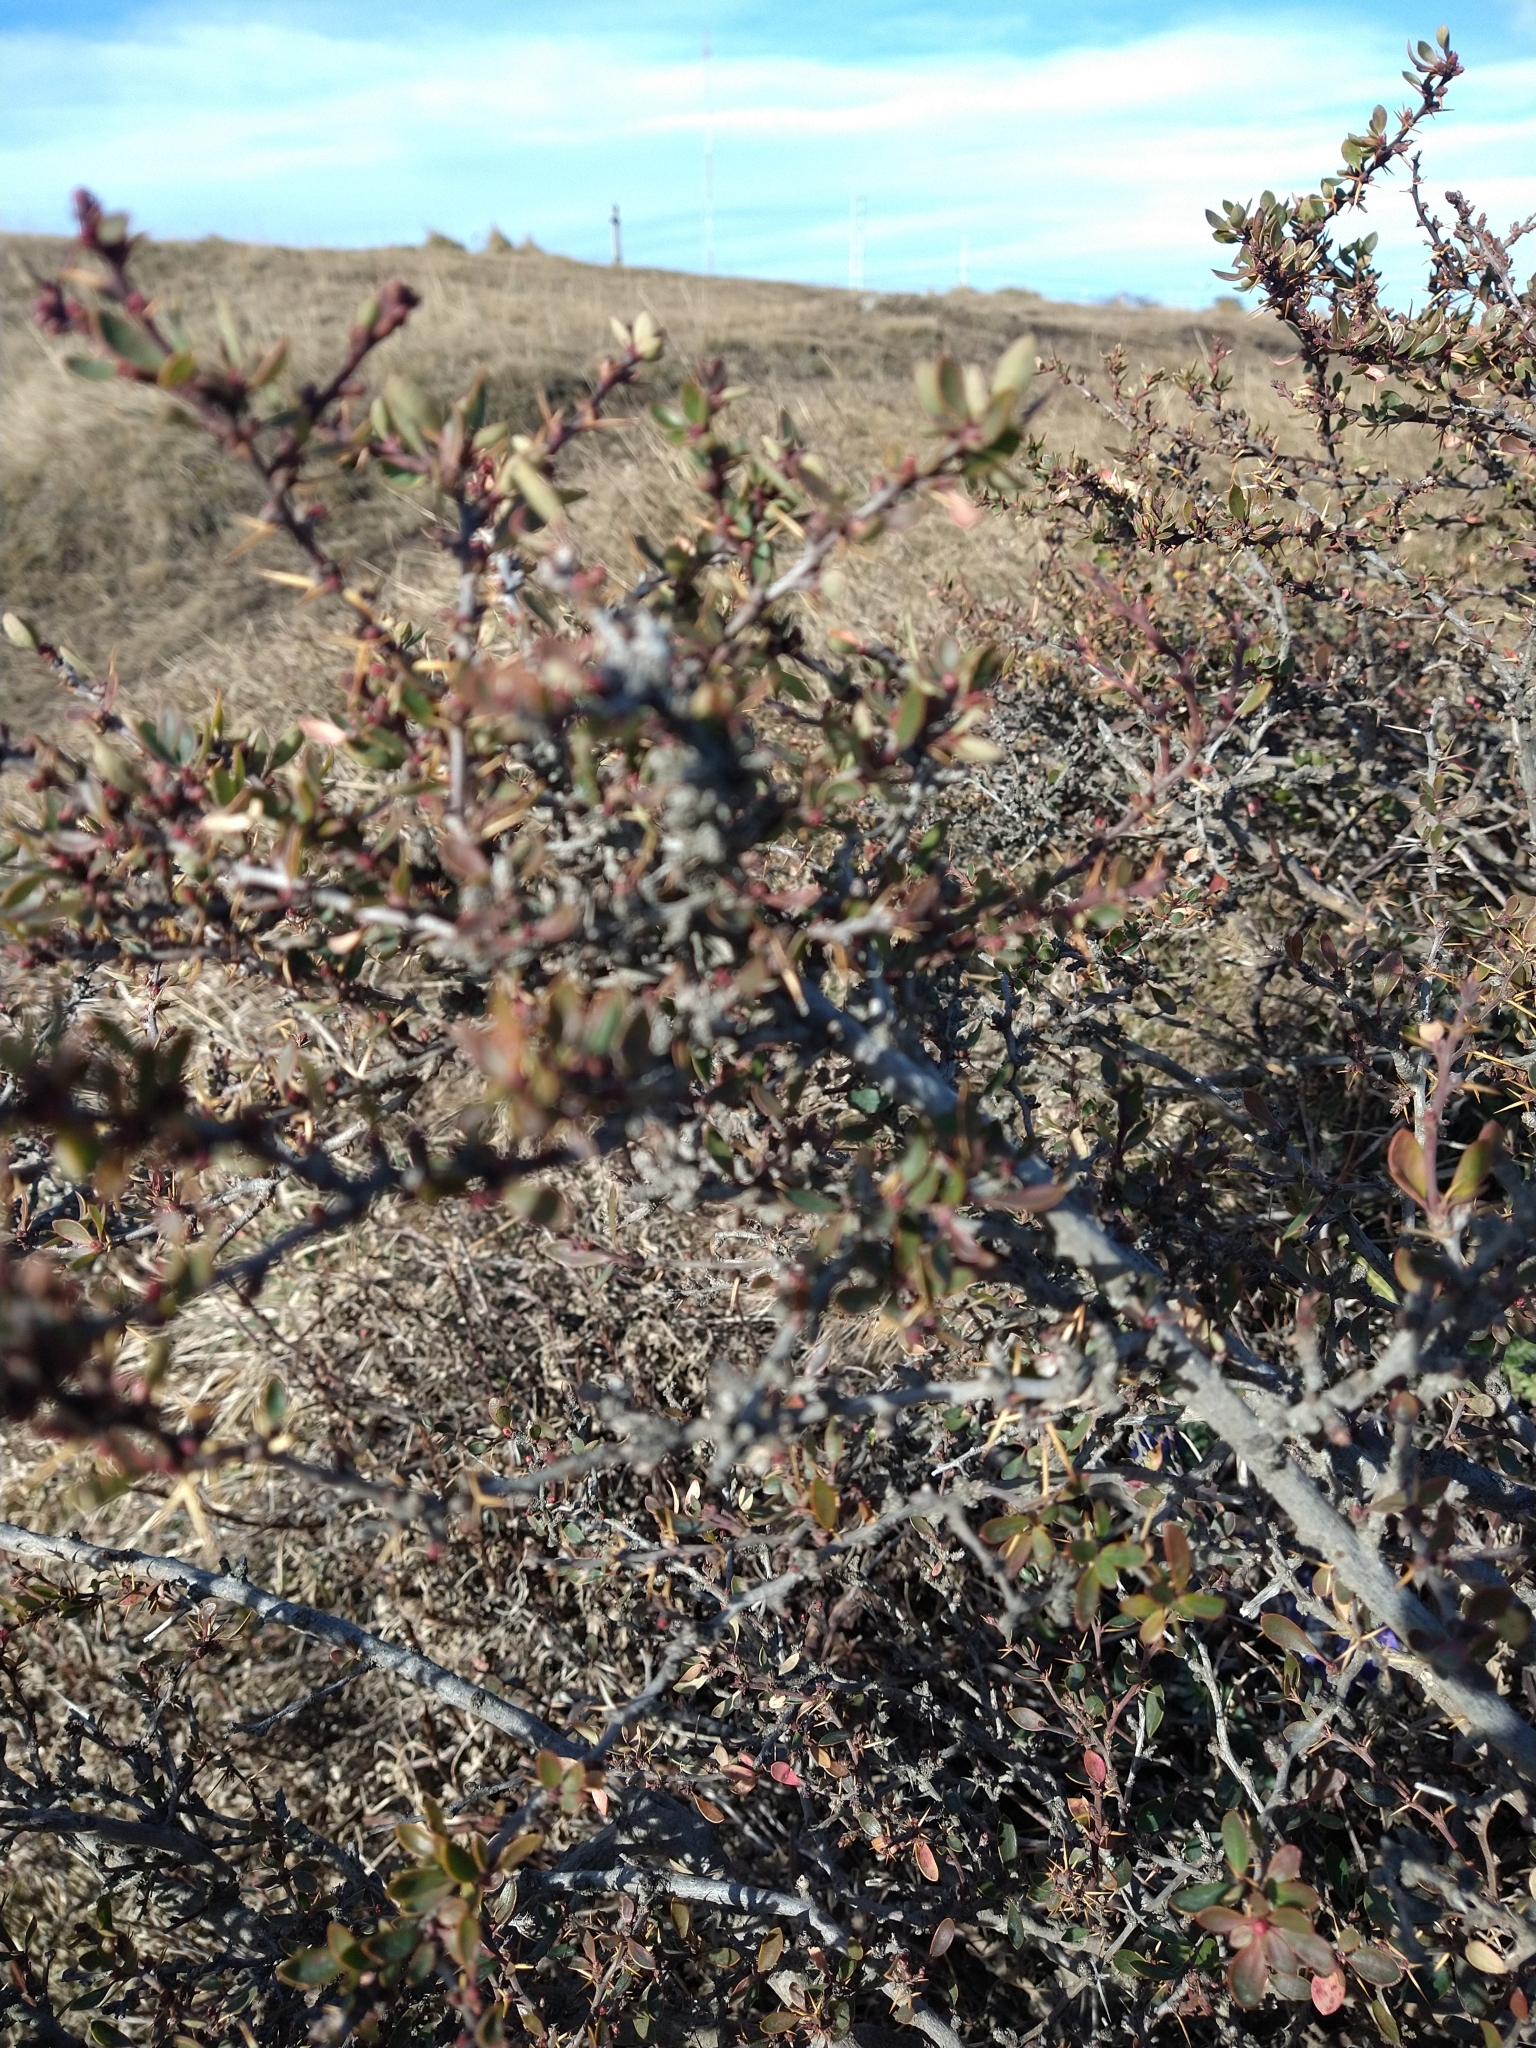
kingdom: Plantae
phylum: Tracheophyta
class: Magnoliopsida
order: Ranunculales
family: Berberidaceae
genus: Berberis
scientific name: Berberis microphylla
